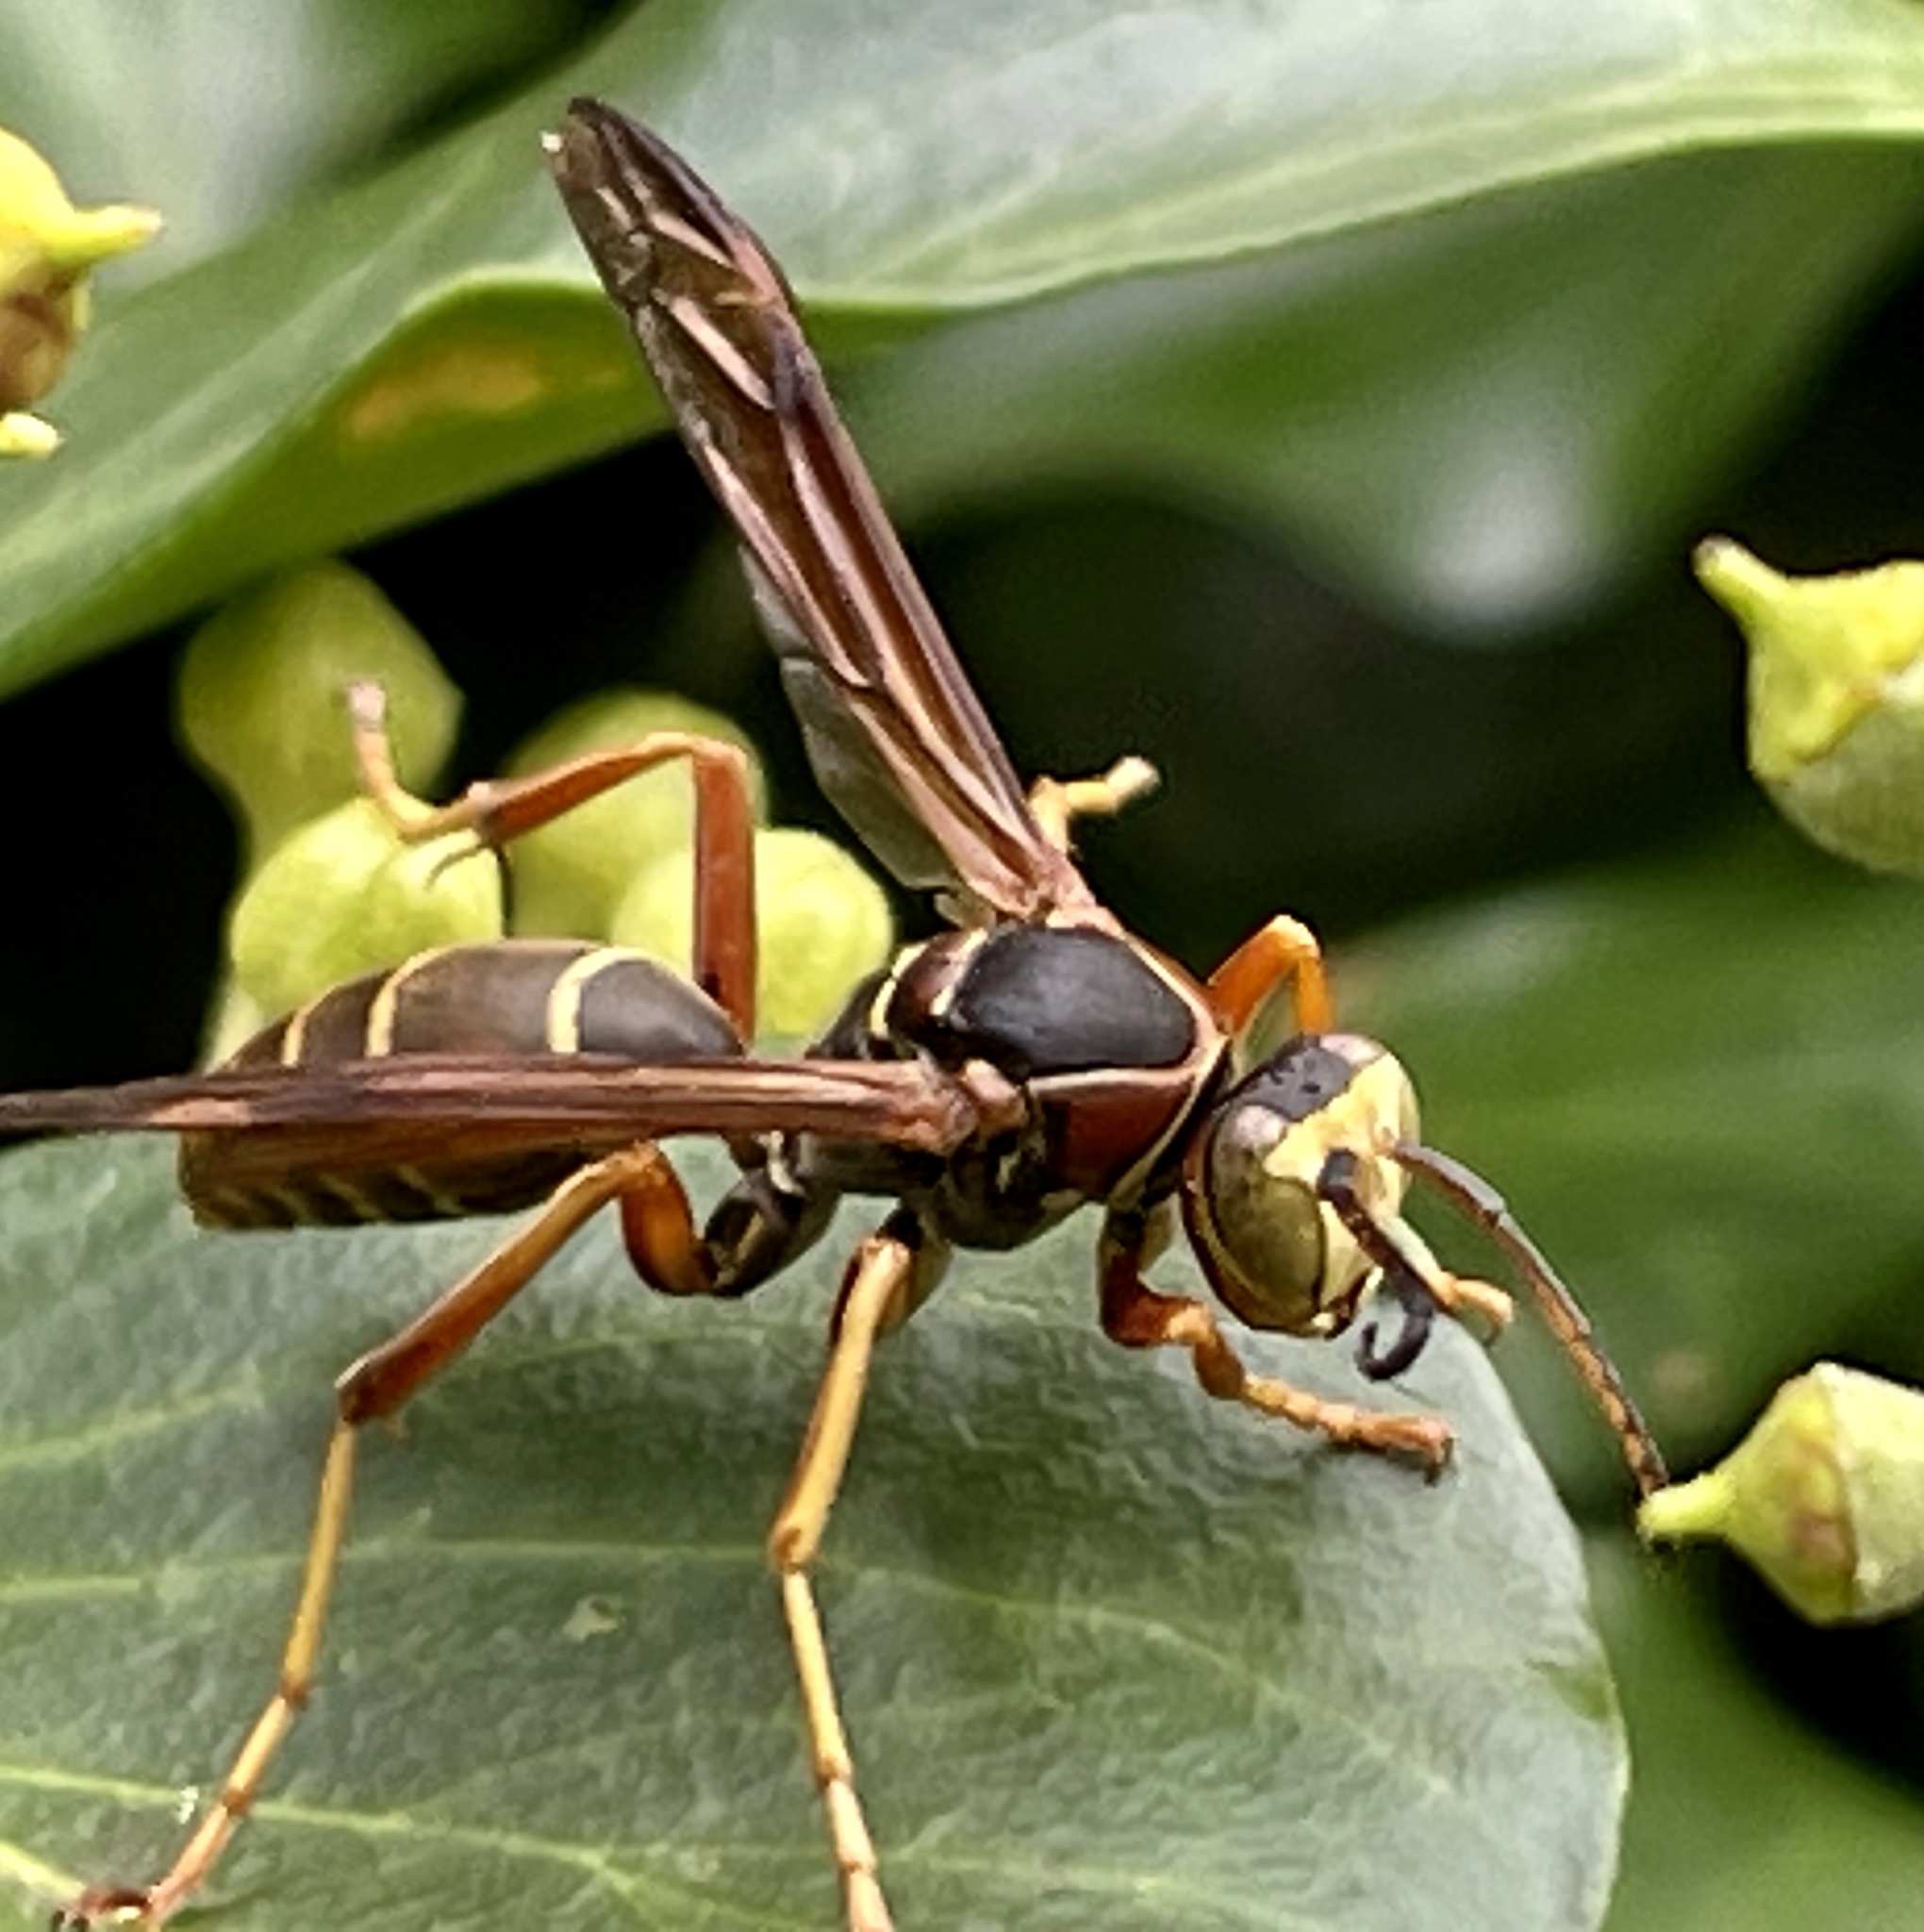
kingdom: Animalia
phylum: Arthropoda
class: Insecta
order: Hymenoptera
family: Eumenidae
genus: Polistes
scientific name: Polistes fuscatus
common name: Dark paper wasp
